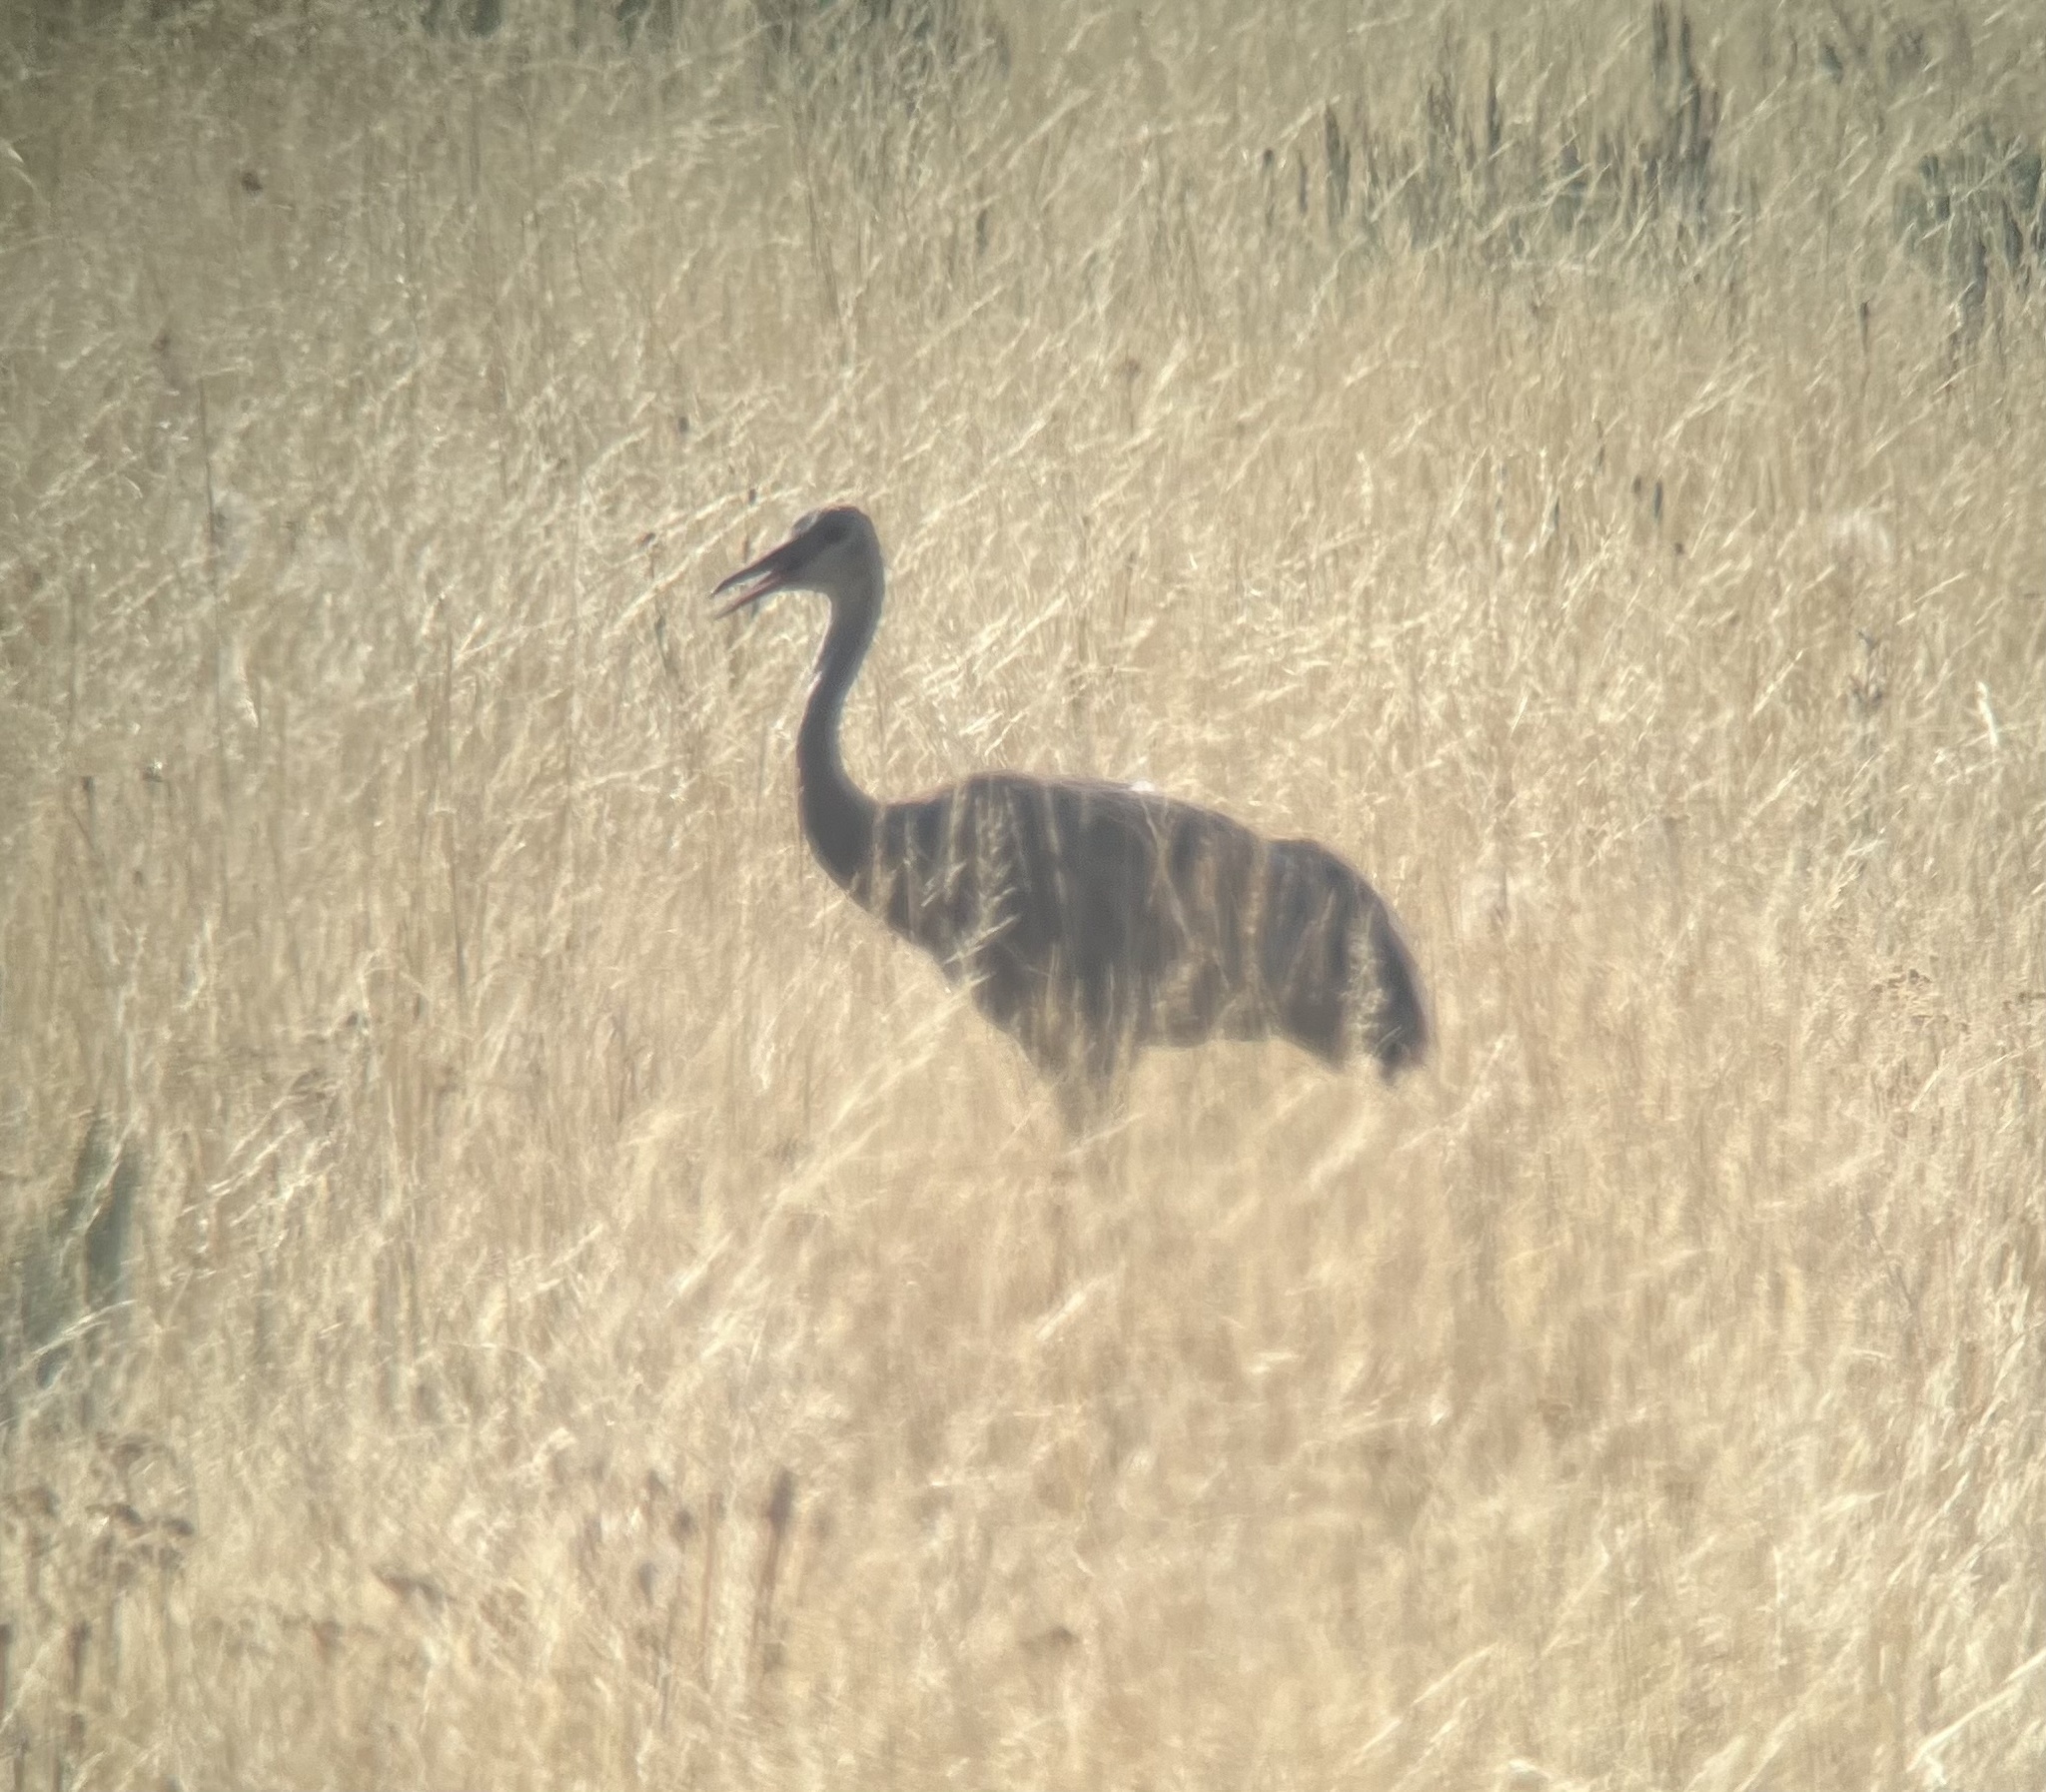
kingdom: Animalia
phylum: Chordata
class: Aves
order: Gruiformes
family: Gruidae
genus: Grus
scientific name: Grus canadensis
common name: Sandhill crane
